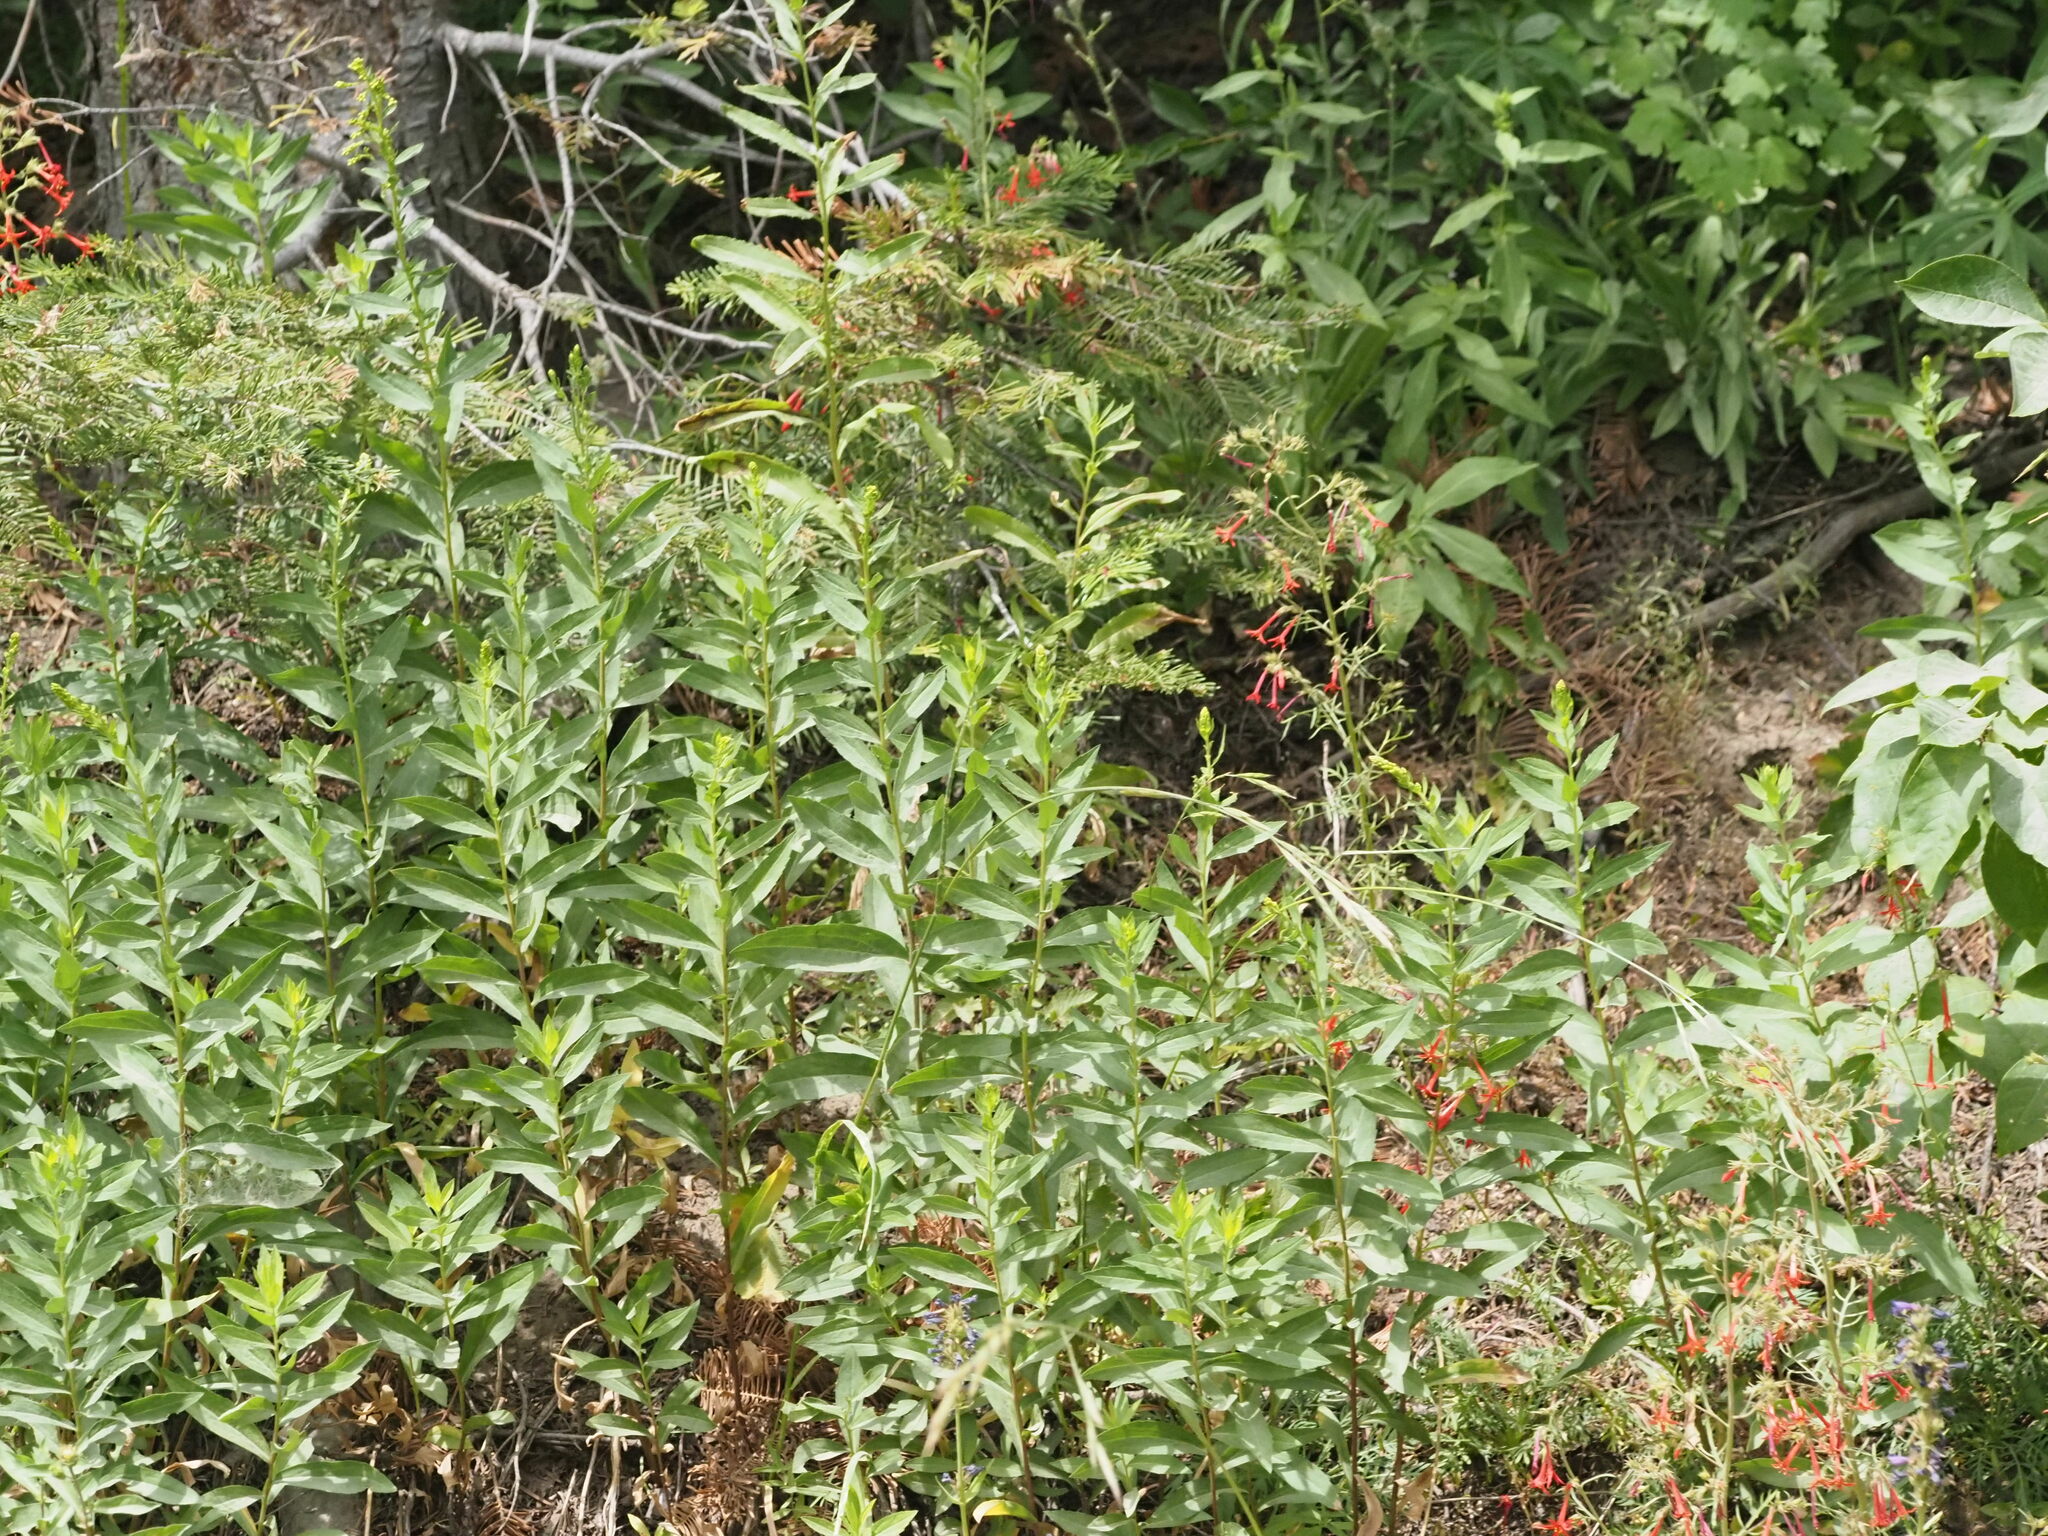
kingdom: Plantae
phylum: Tracheophyta
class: Magnoliopsida
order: Ericales
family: Polemoniaceae
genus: Ipomopsis
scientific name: Ipomopsis aggregata
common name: Scarlet gilia
